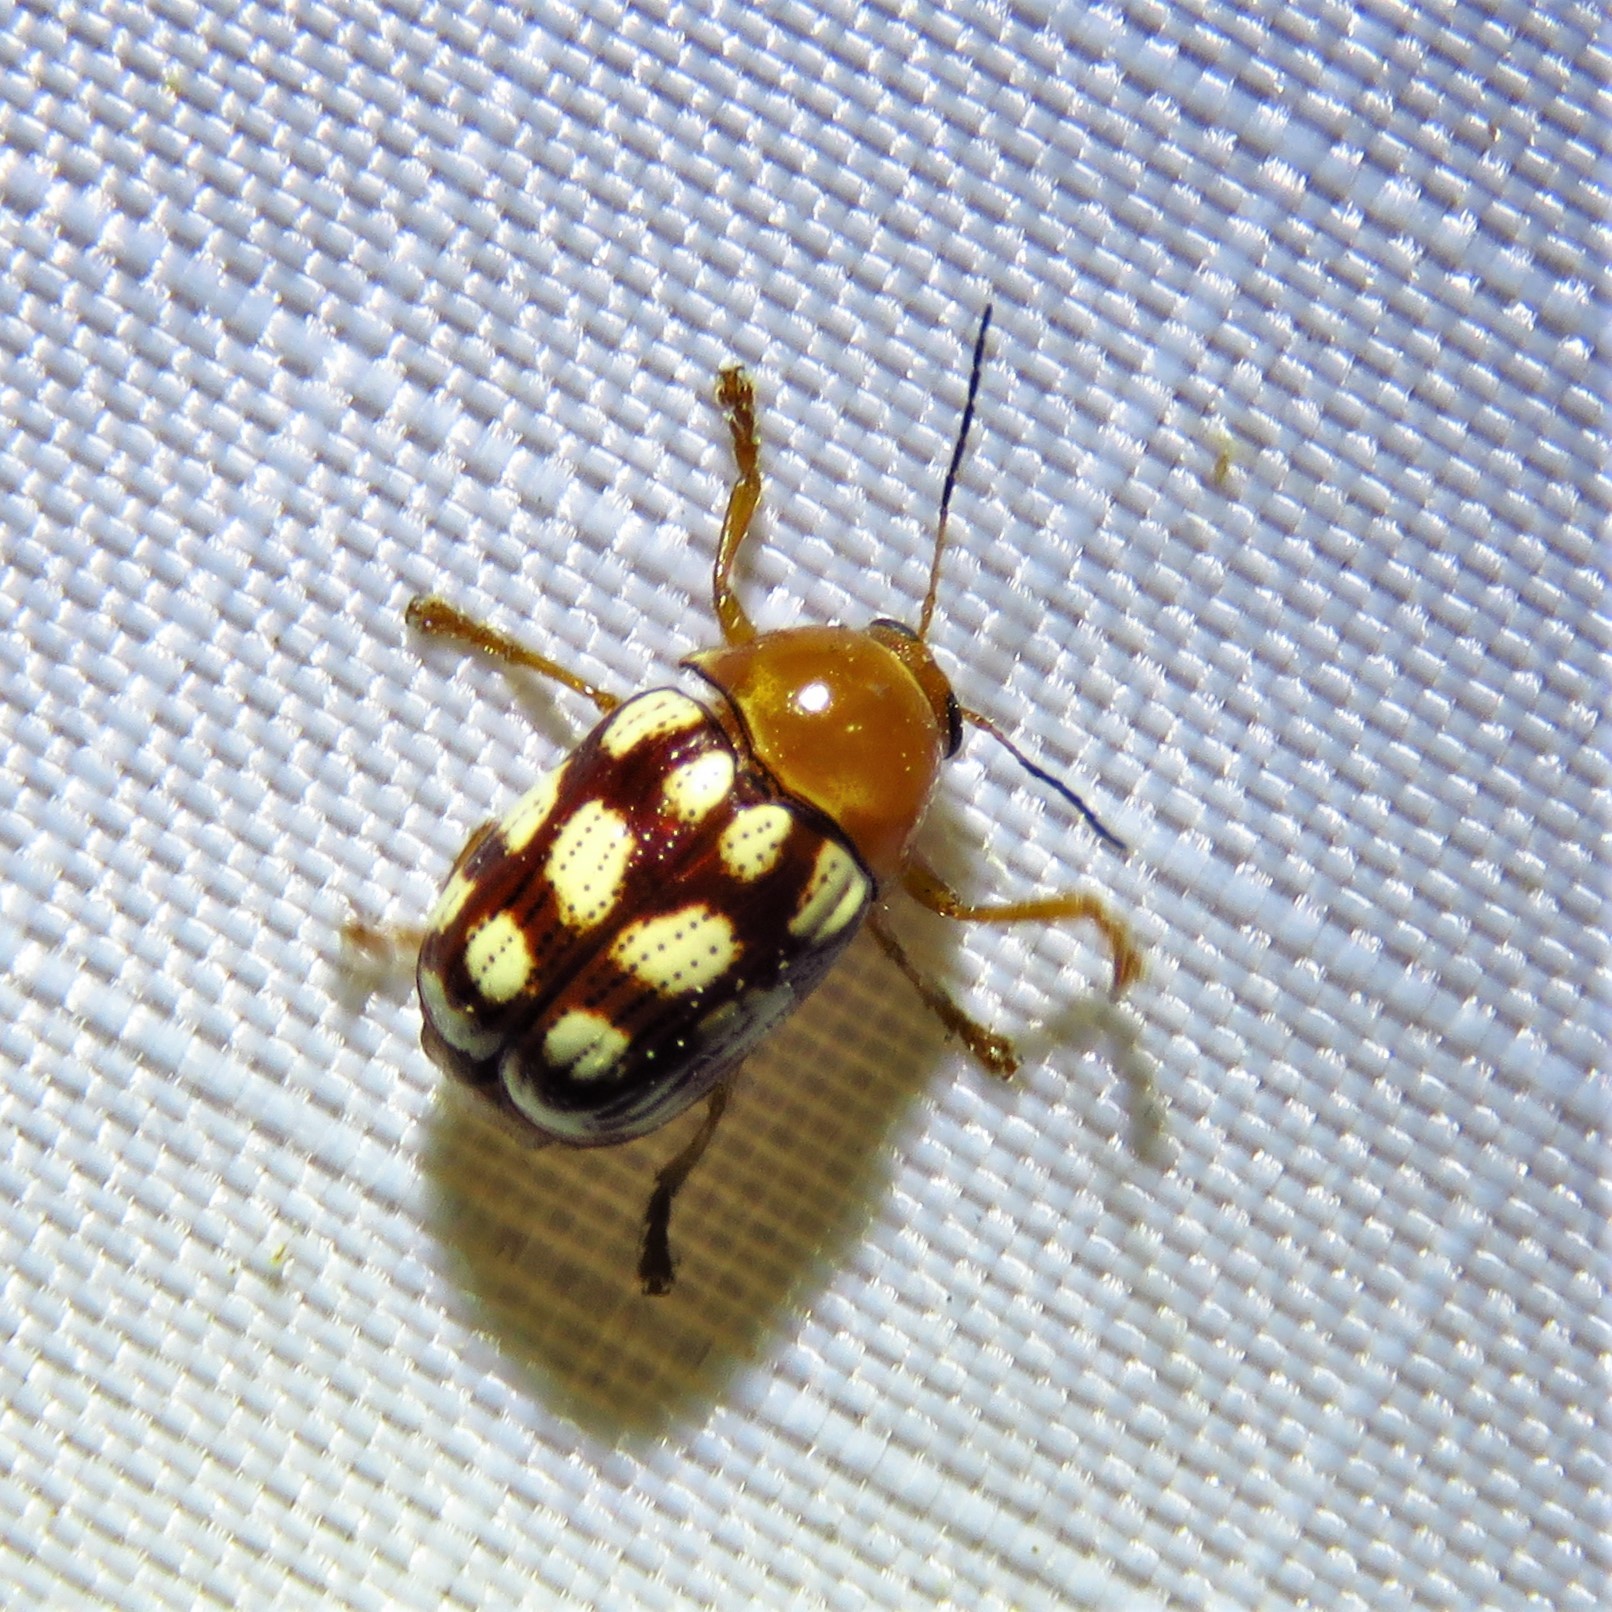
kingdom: Animalia
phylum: Arthropoda
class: Insecta
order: Coleoptera
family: Chrysomelidae
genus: Cryptocephalus
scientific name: Cryptocephalus guttulatus
